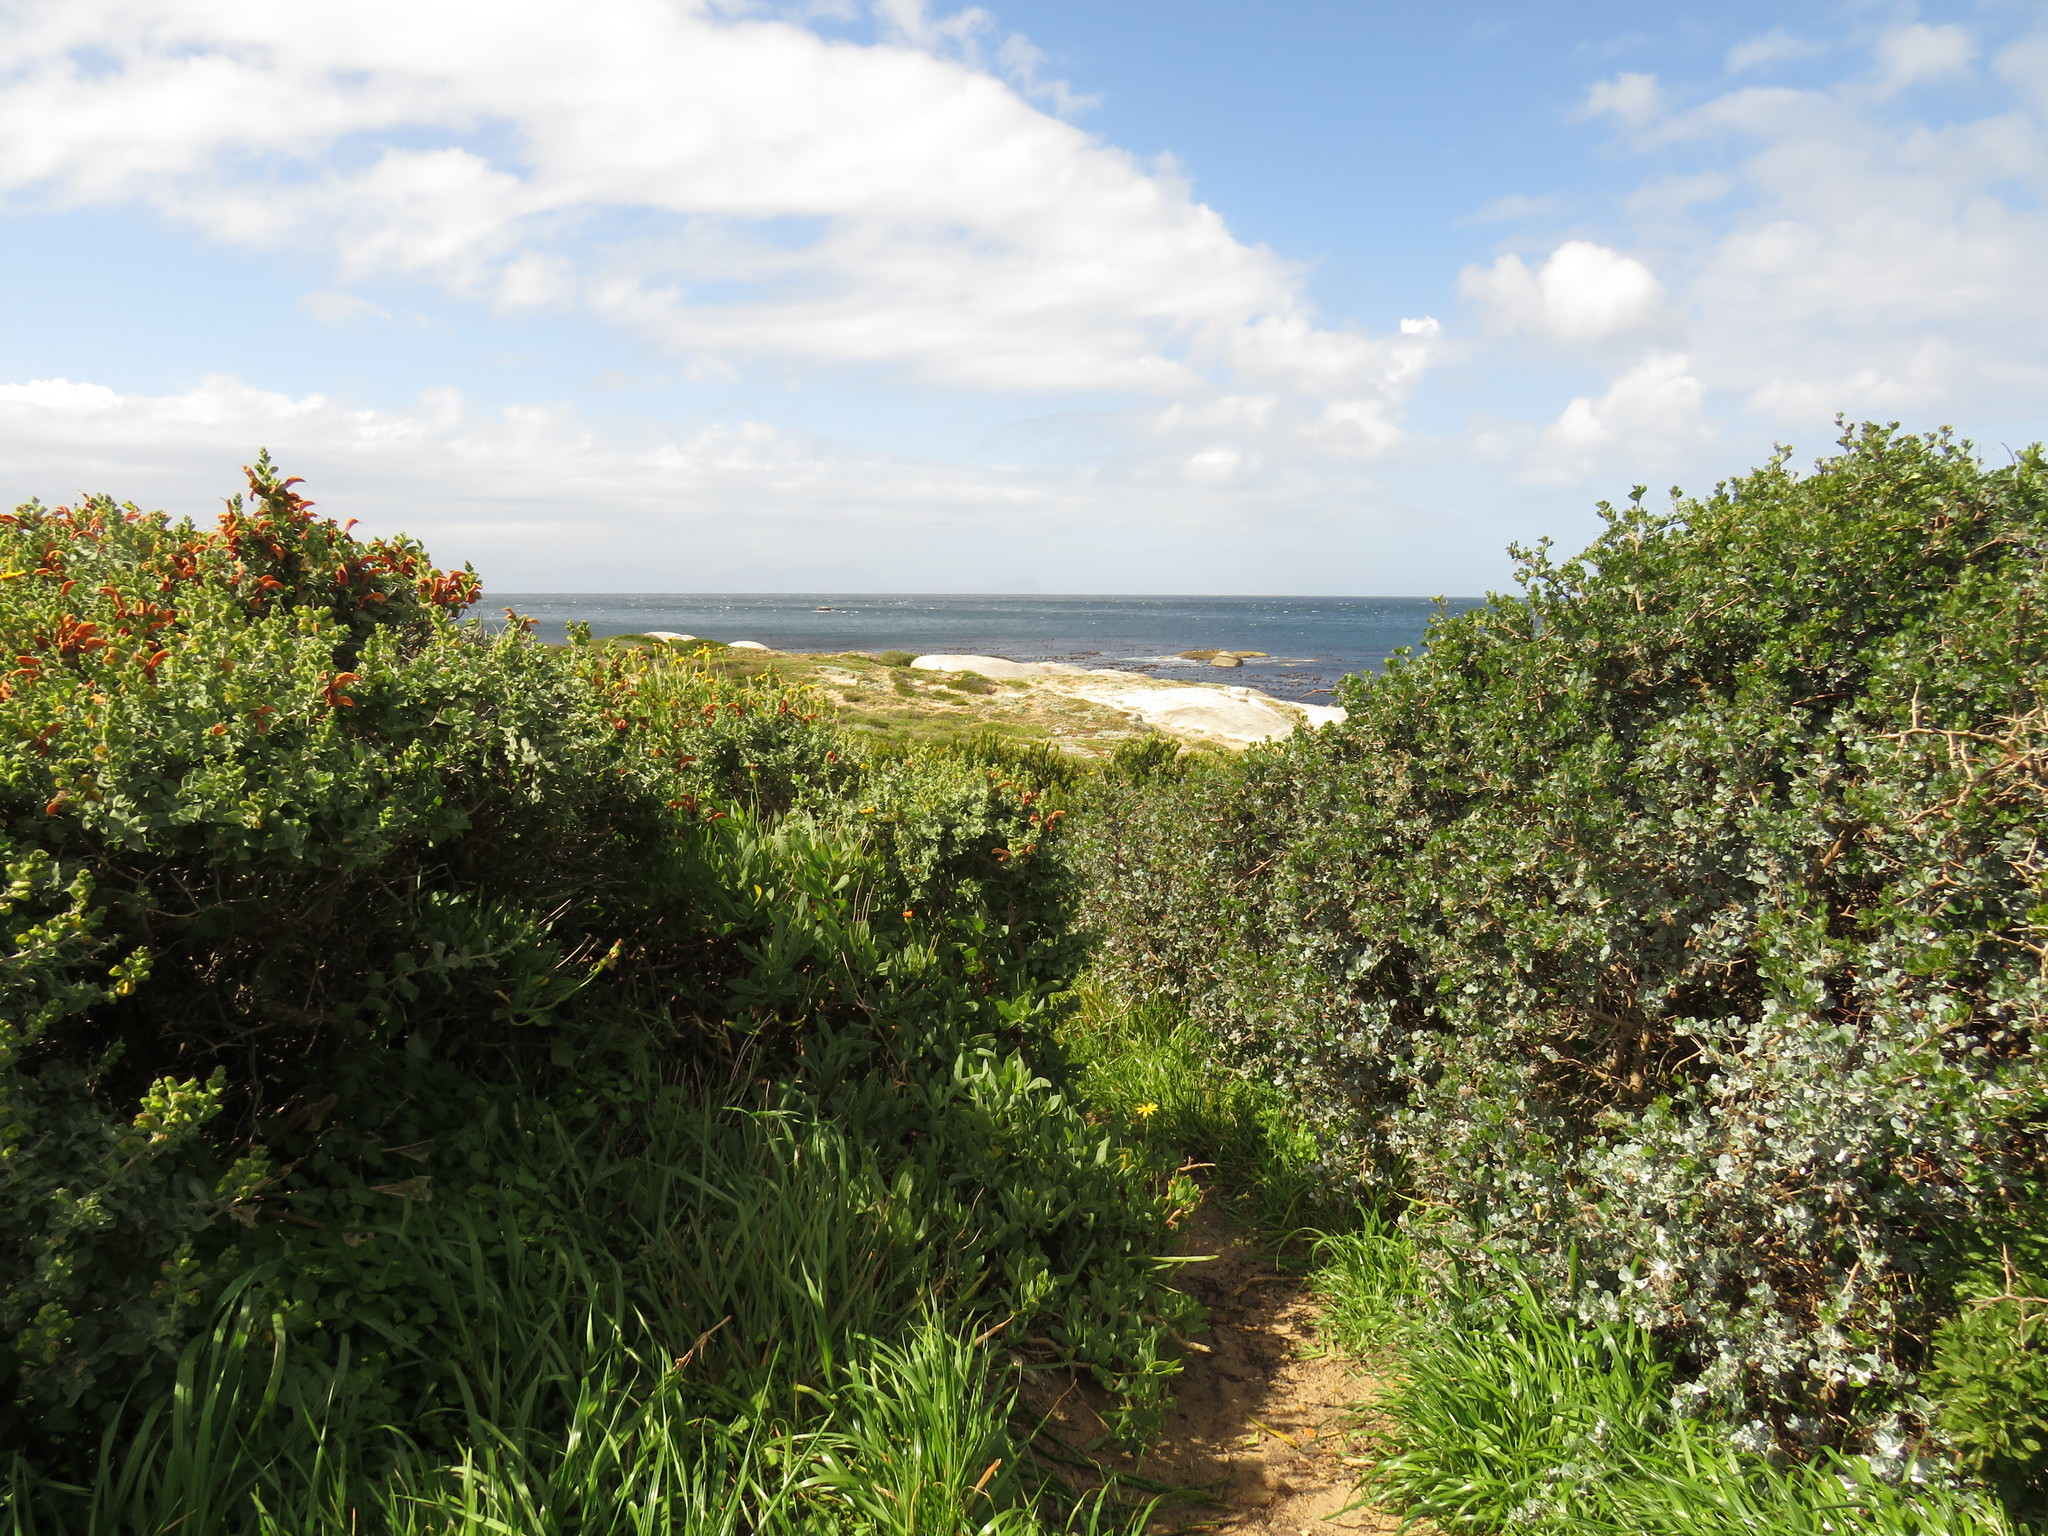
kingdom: Plantae
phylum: Tracheophyta
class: Magnoliopsida
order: Rosales
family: Urticaceae
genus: Didymodoxa
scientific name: Didymodoxa capensis
